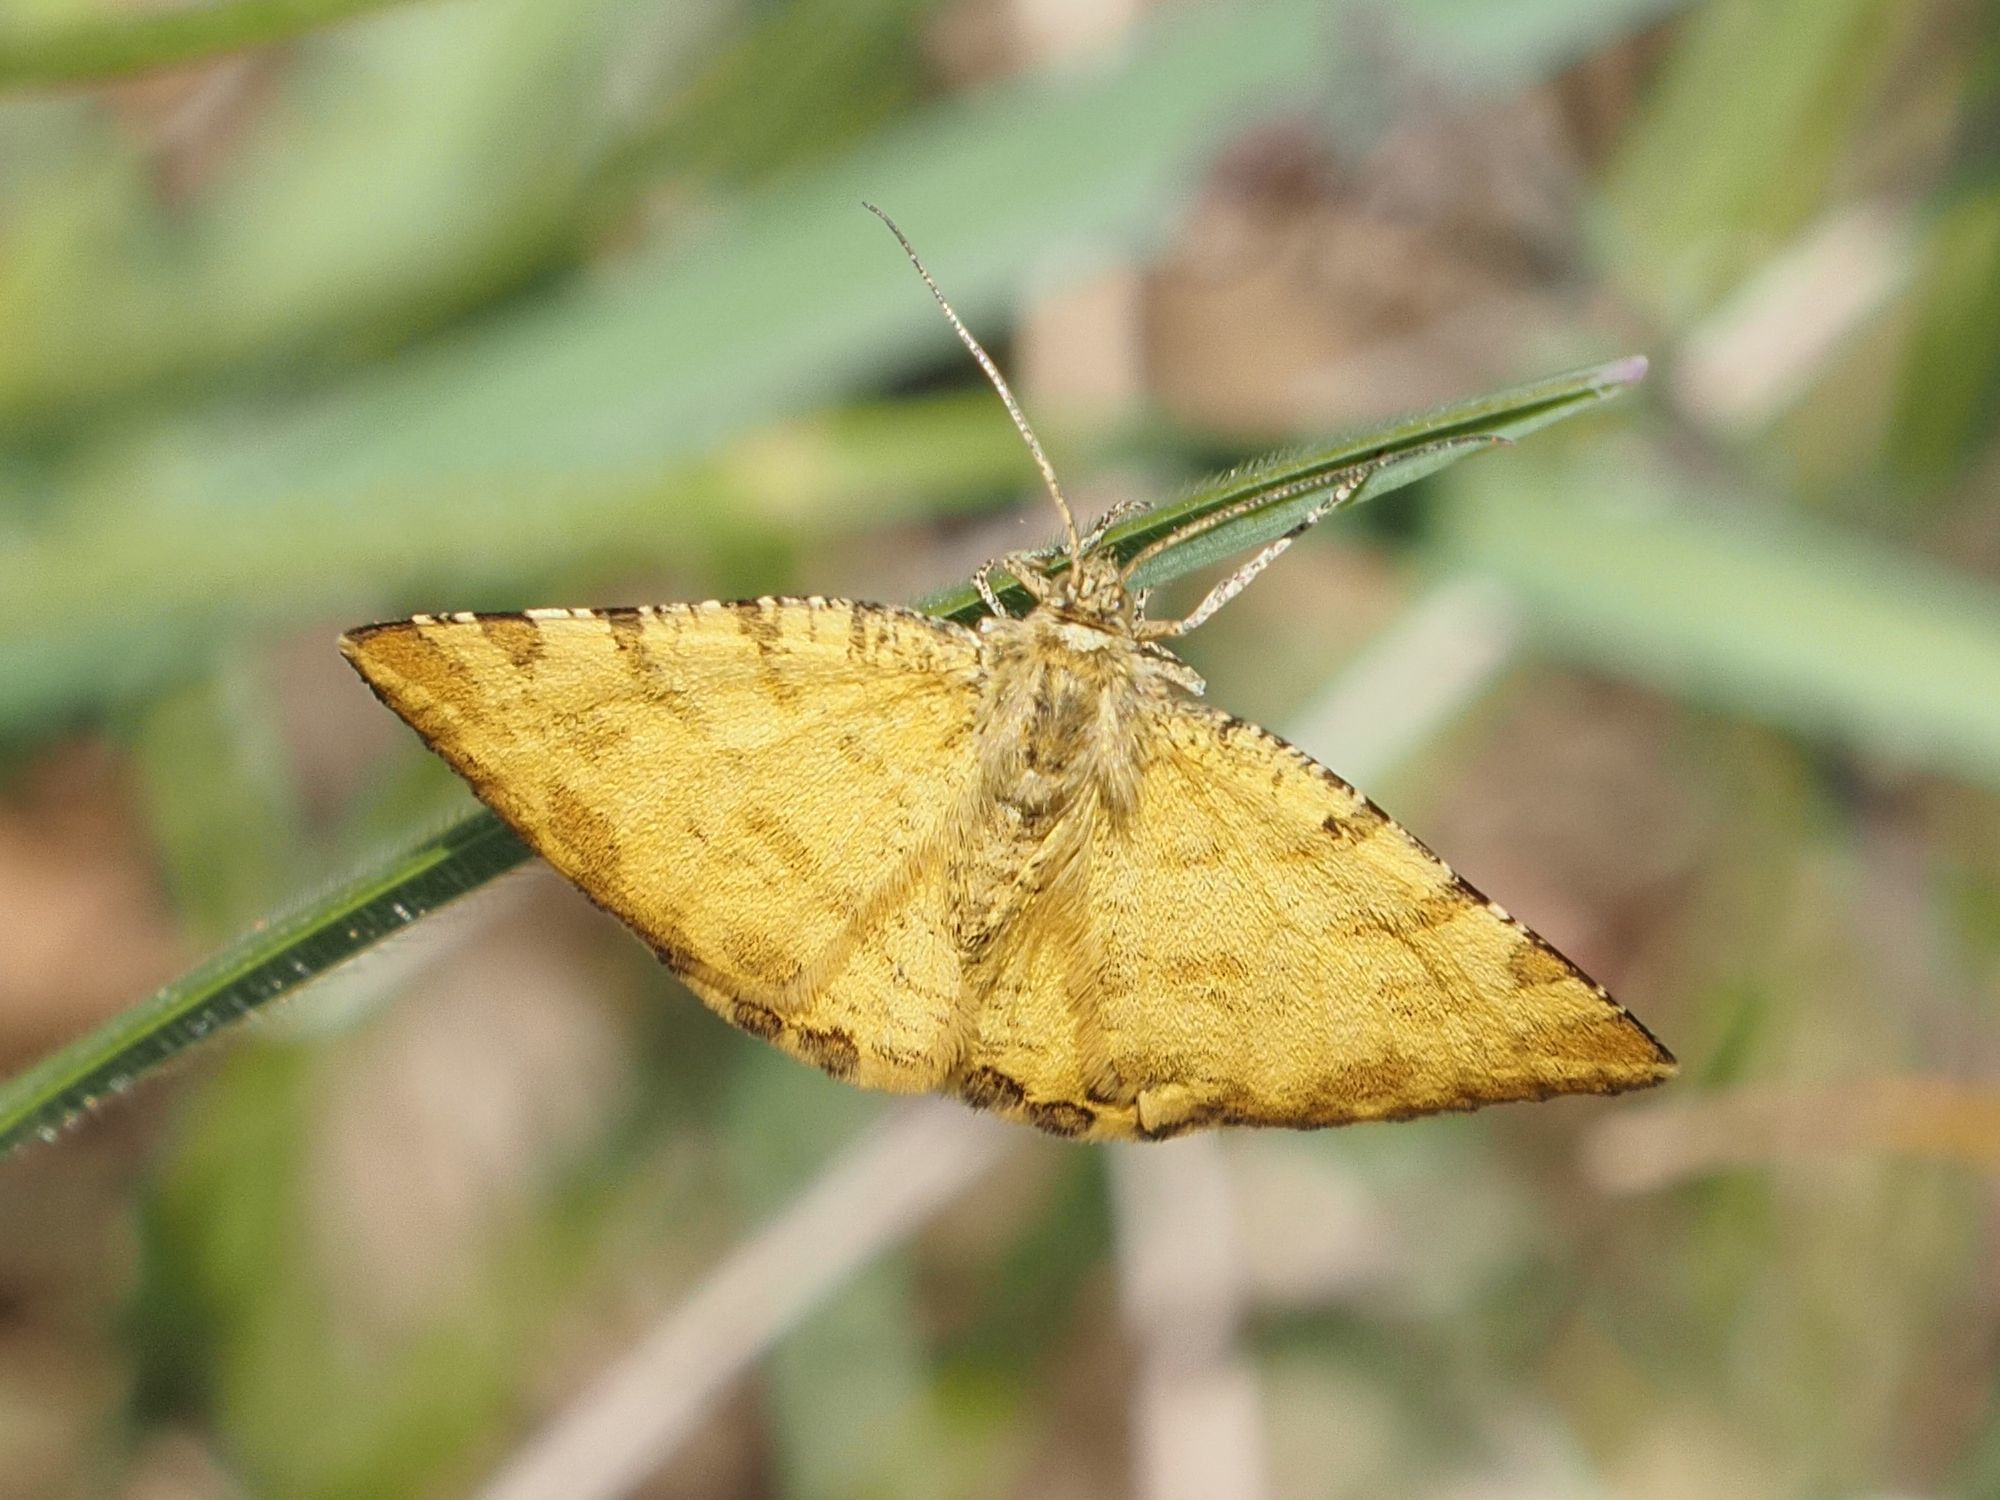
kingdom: Animalia
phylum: Arthropoda
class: Insecta
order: Lepidoptera
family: Geometridae
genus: Pseudopanthera
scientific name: Pseudopanthera macularia
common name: Speckled yellow
